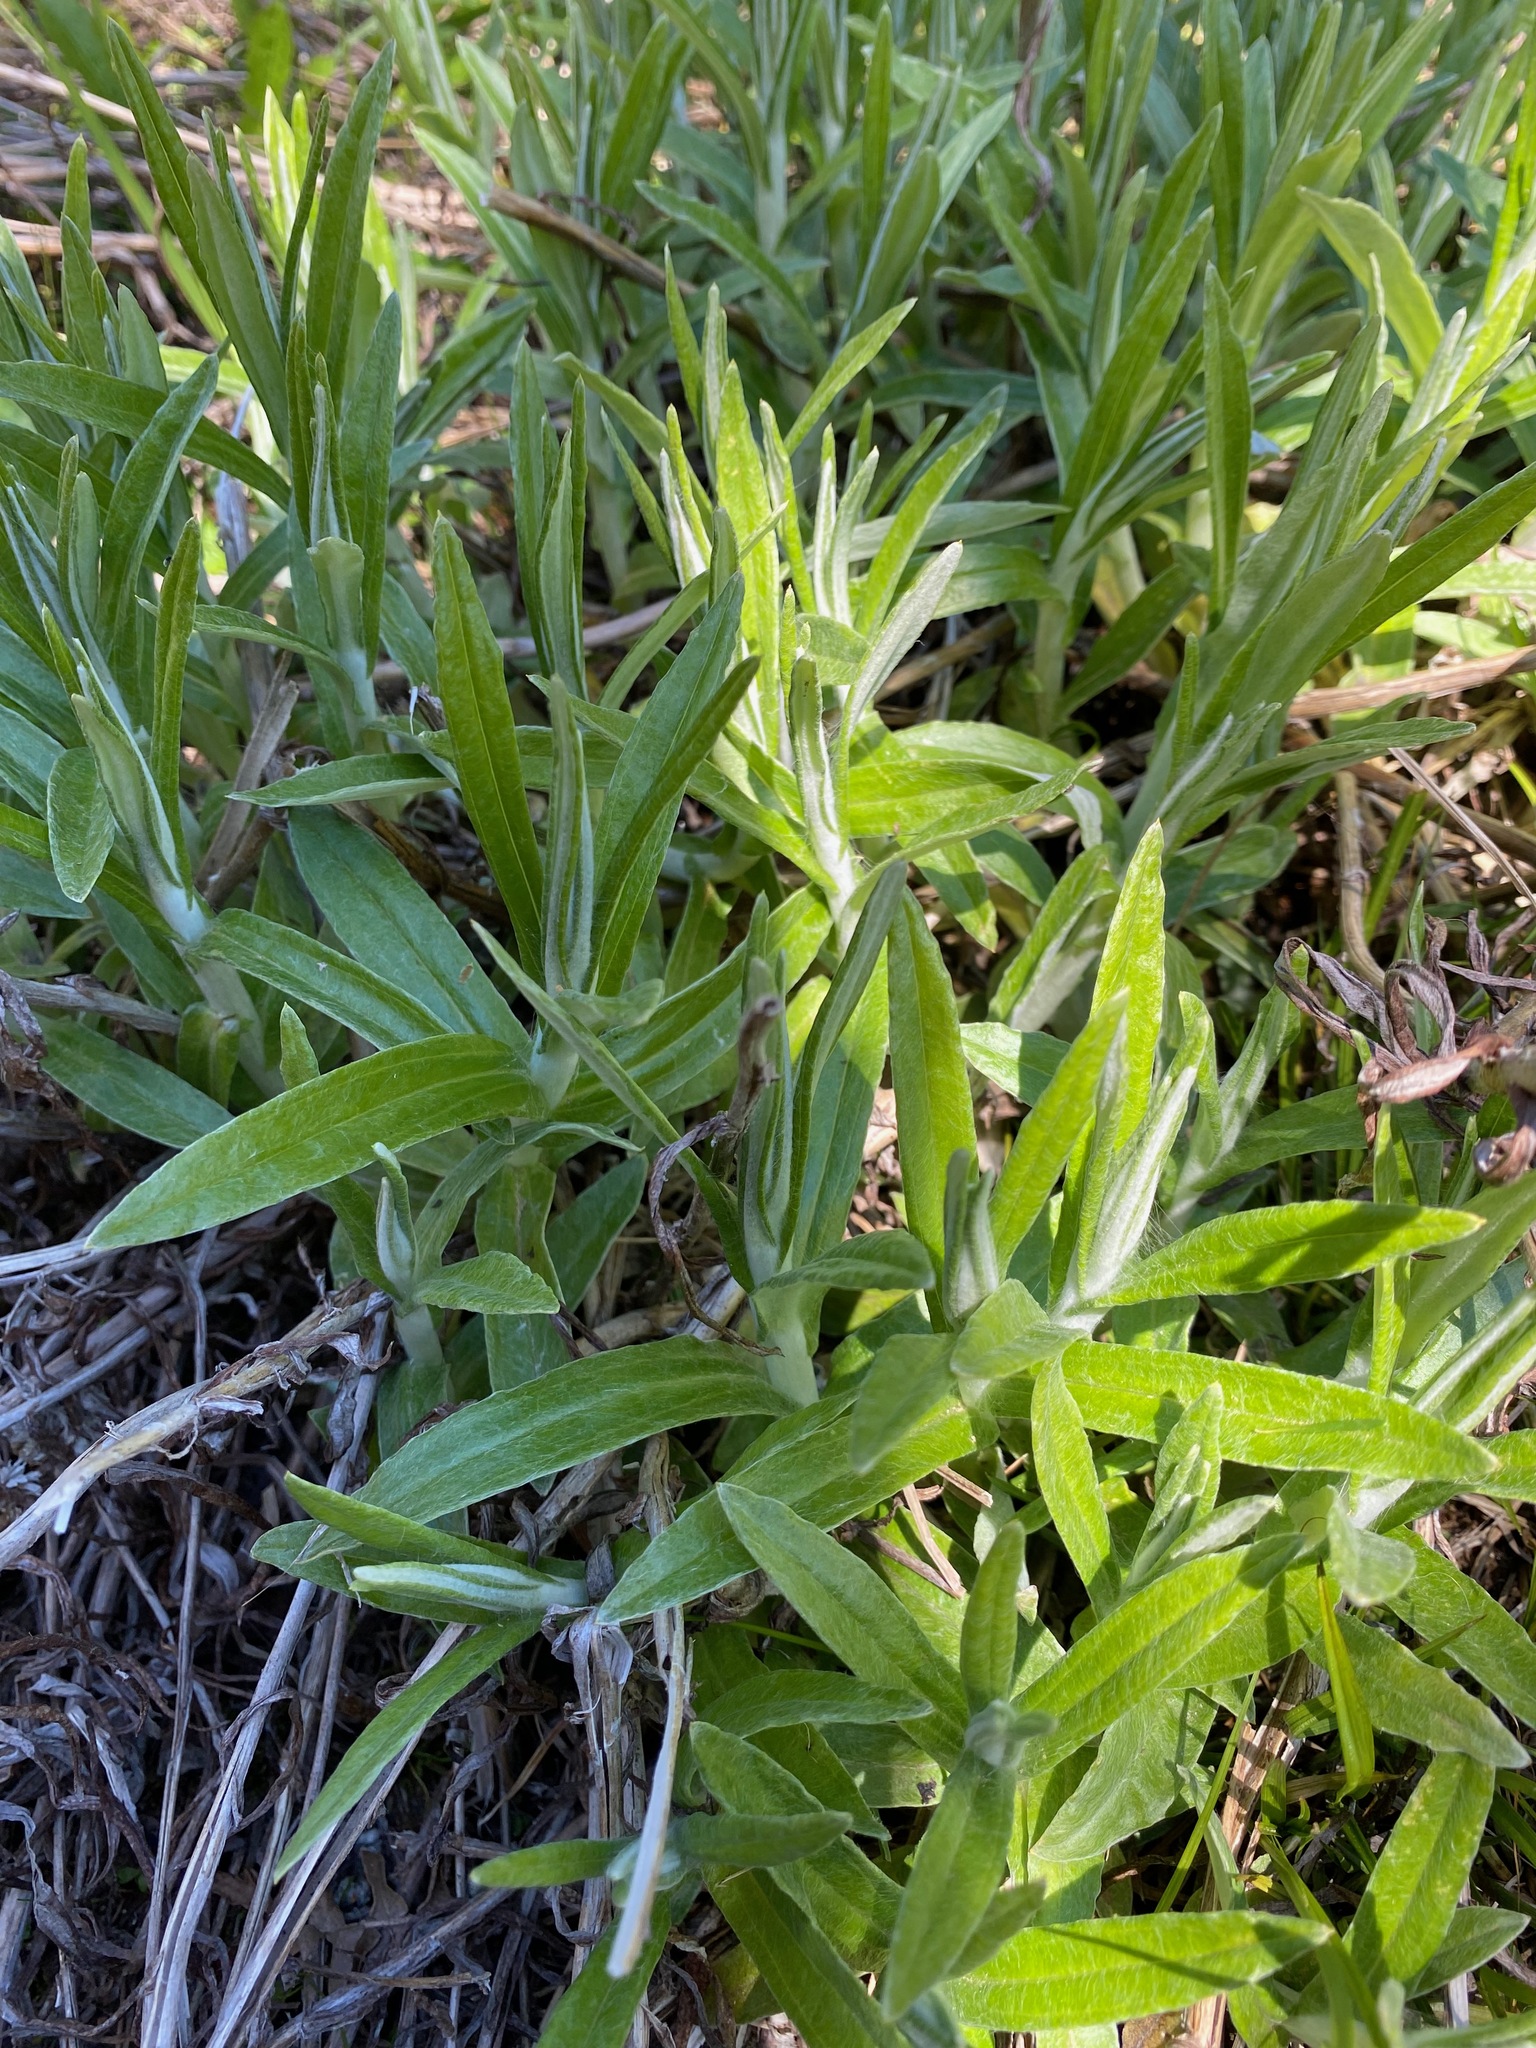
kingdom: Plantae
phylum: Tracheophyta
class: Magnoliopsida
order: Asterales
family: Asteraceae
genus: Anaphalis
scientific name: Anaphalis margaritacea
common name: Pearly everlasting
